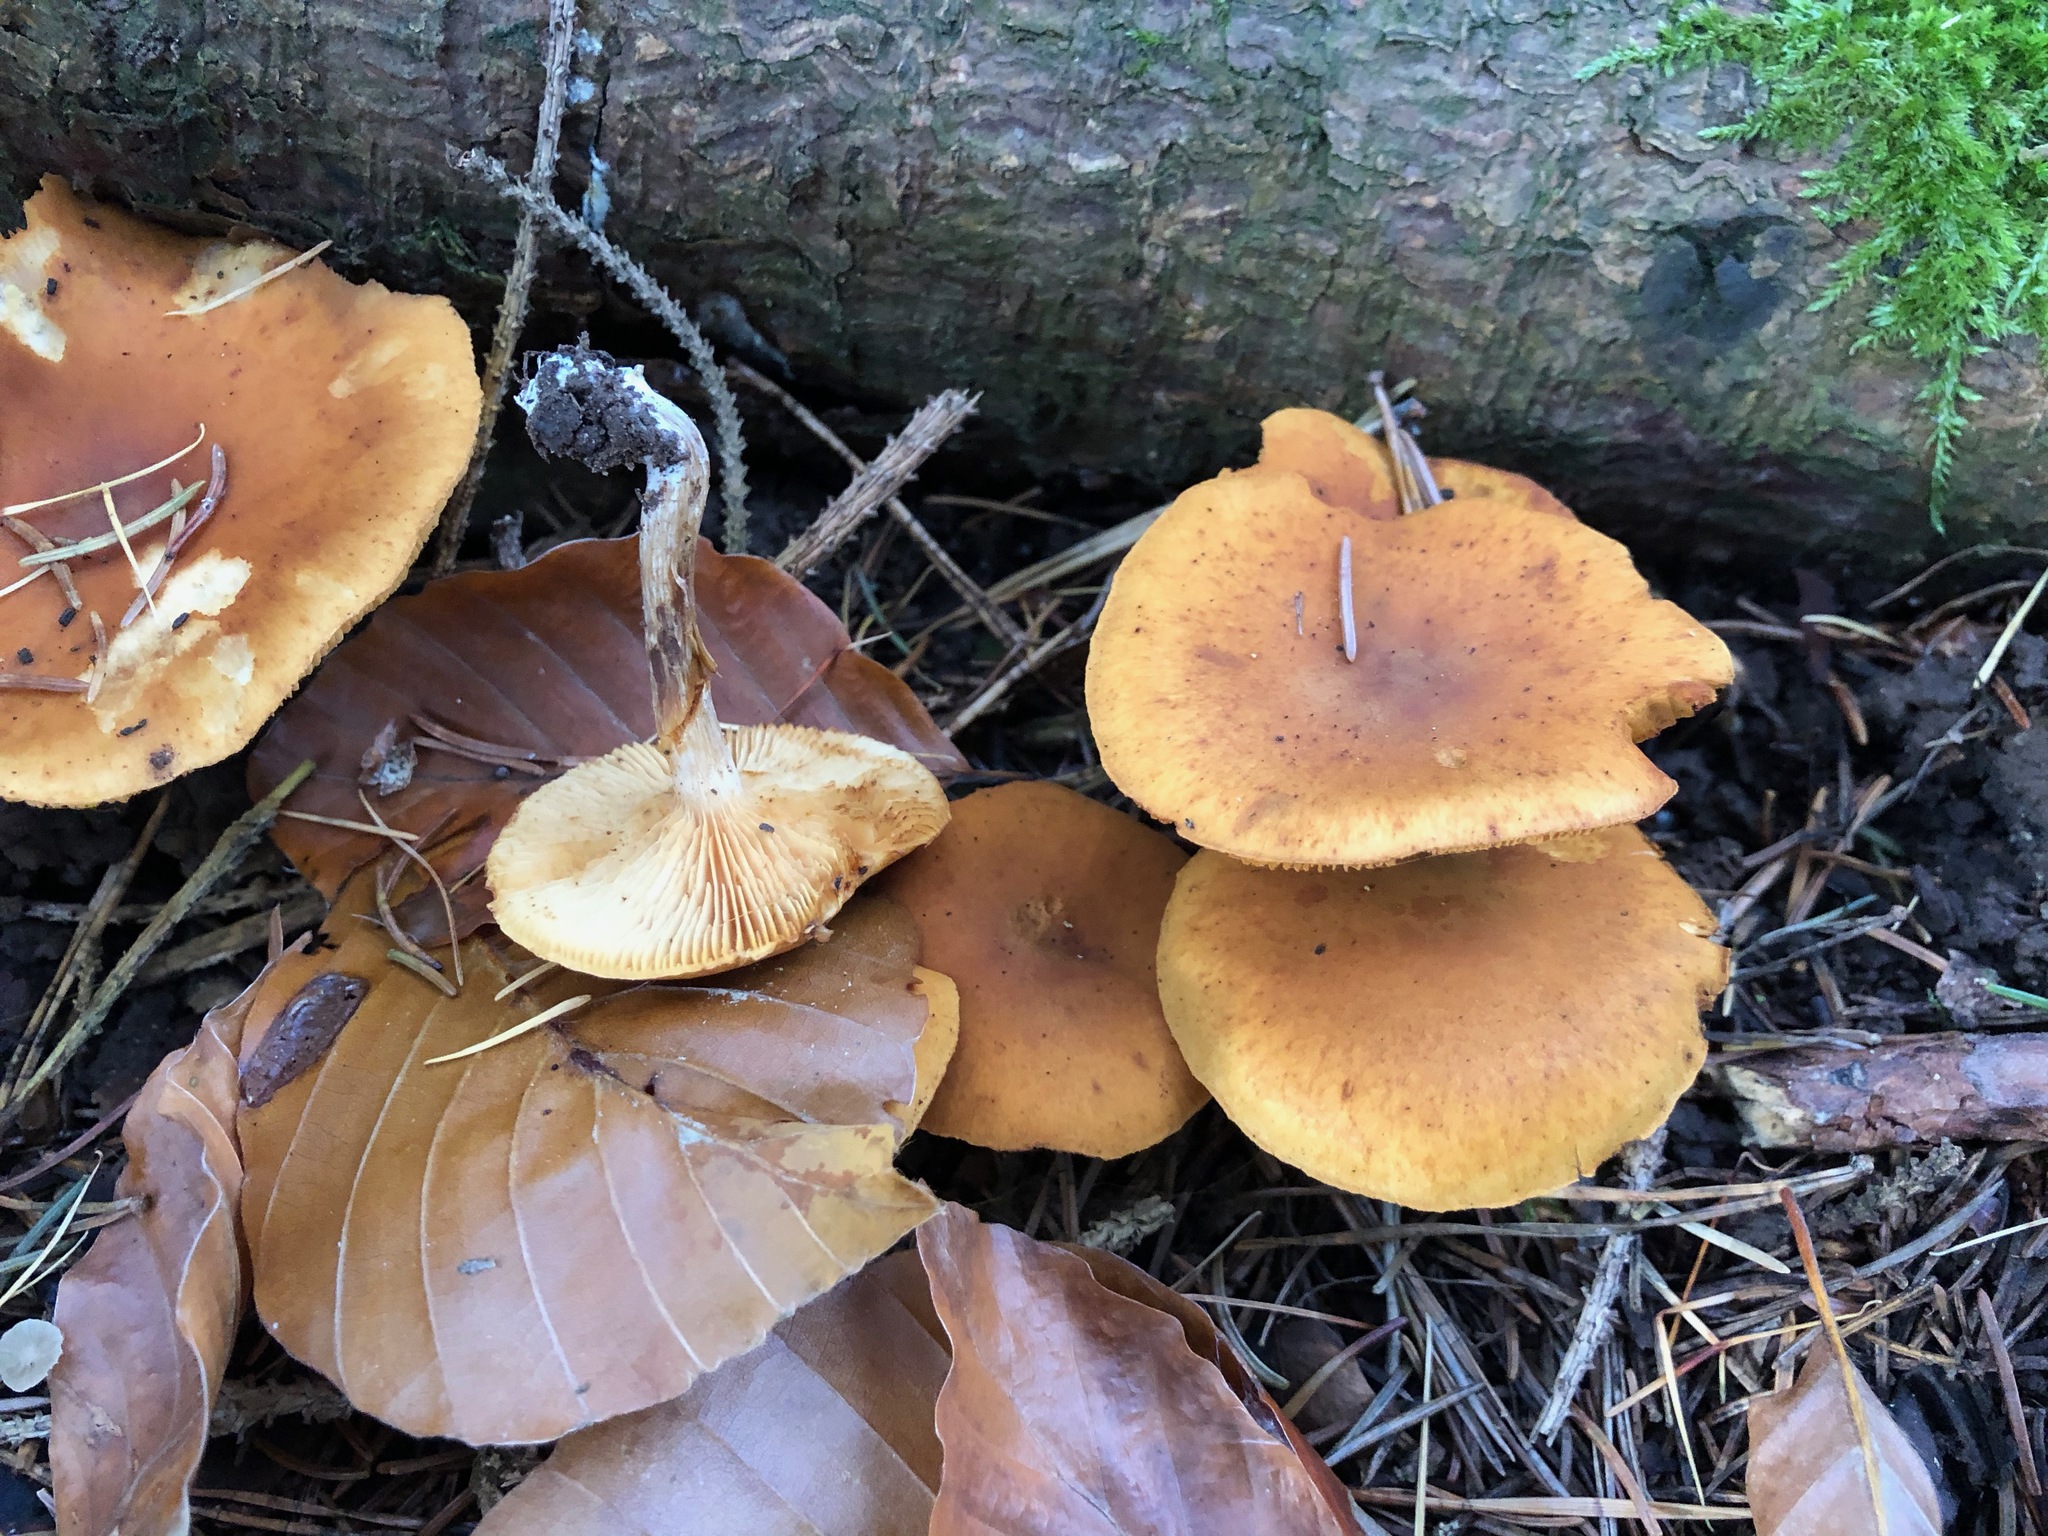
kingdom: Fungi
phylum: Basidiomycota
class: Agaricomycetes
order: Agaricales
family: Hymenogastraceae
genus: Gymnopilus
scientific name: Gymnopilus
